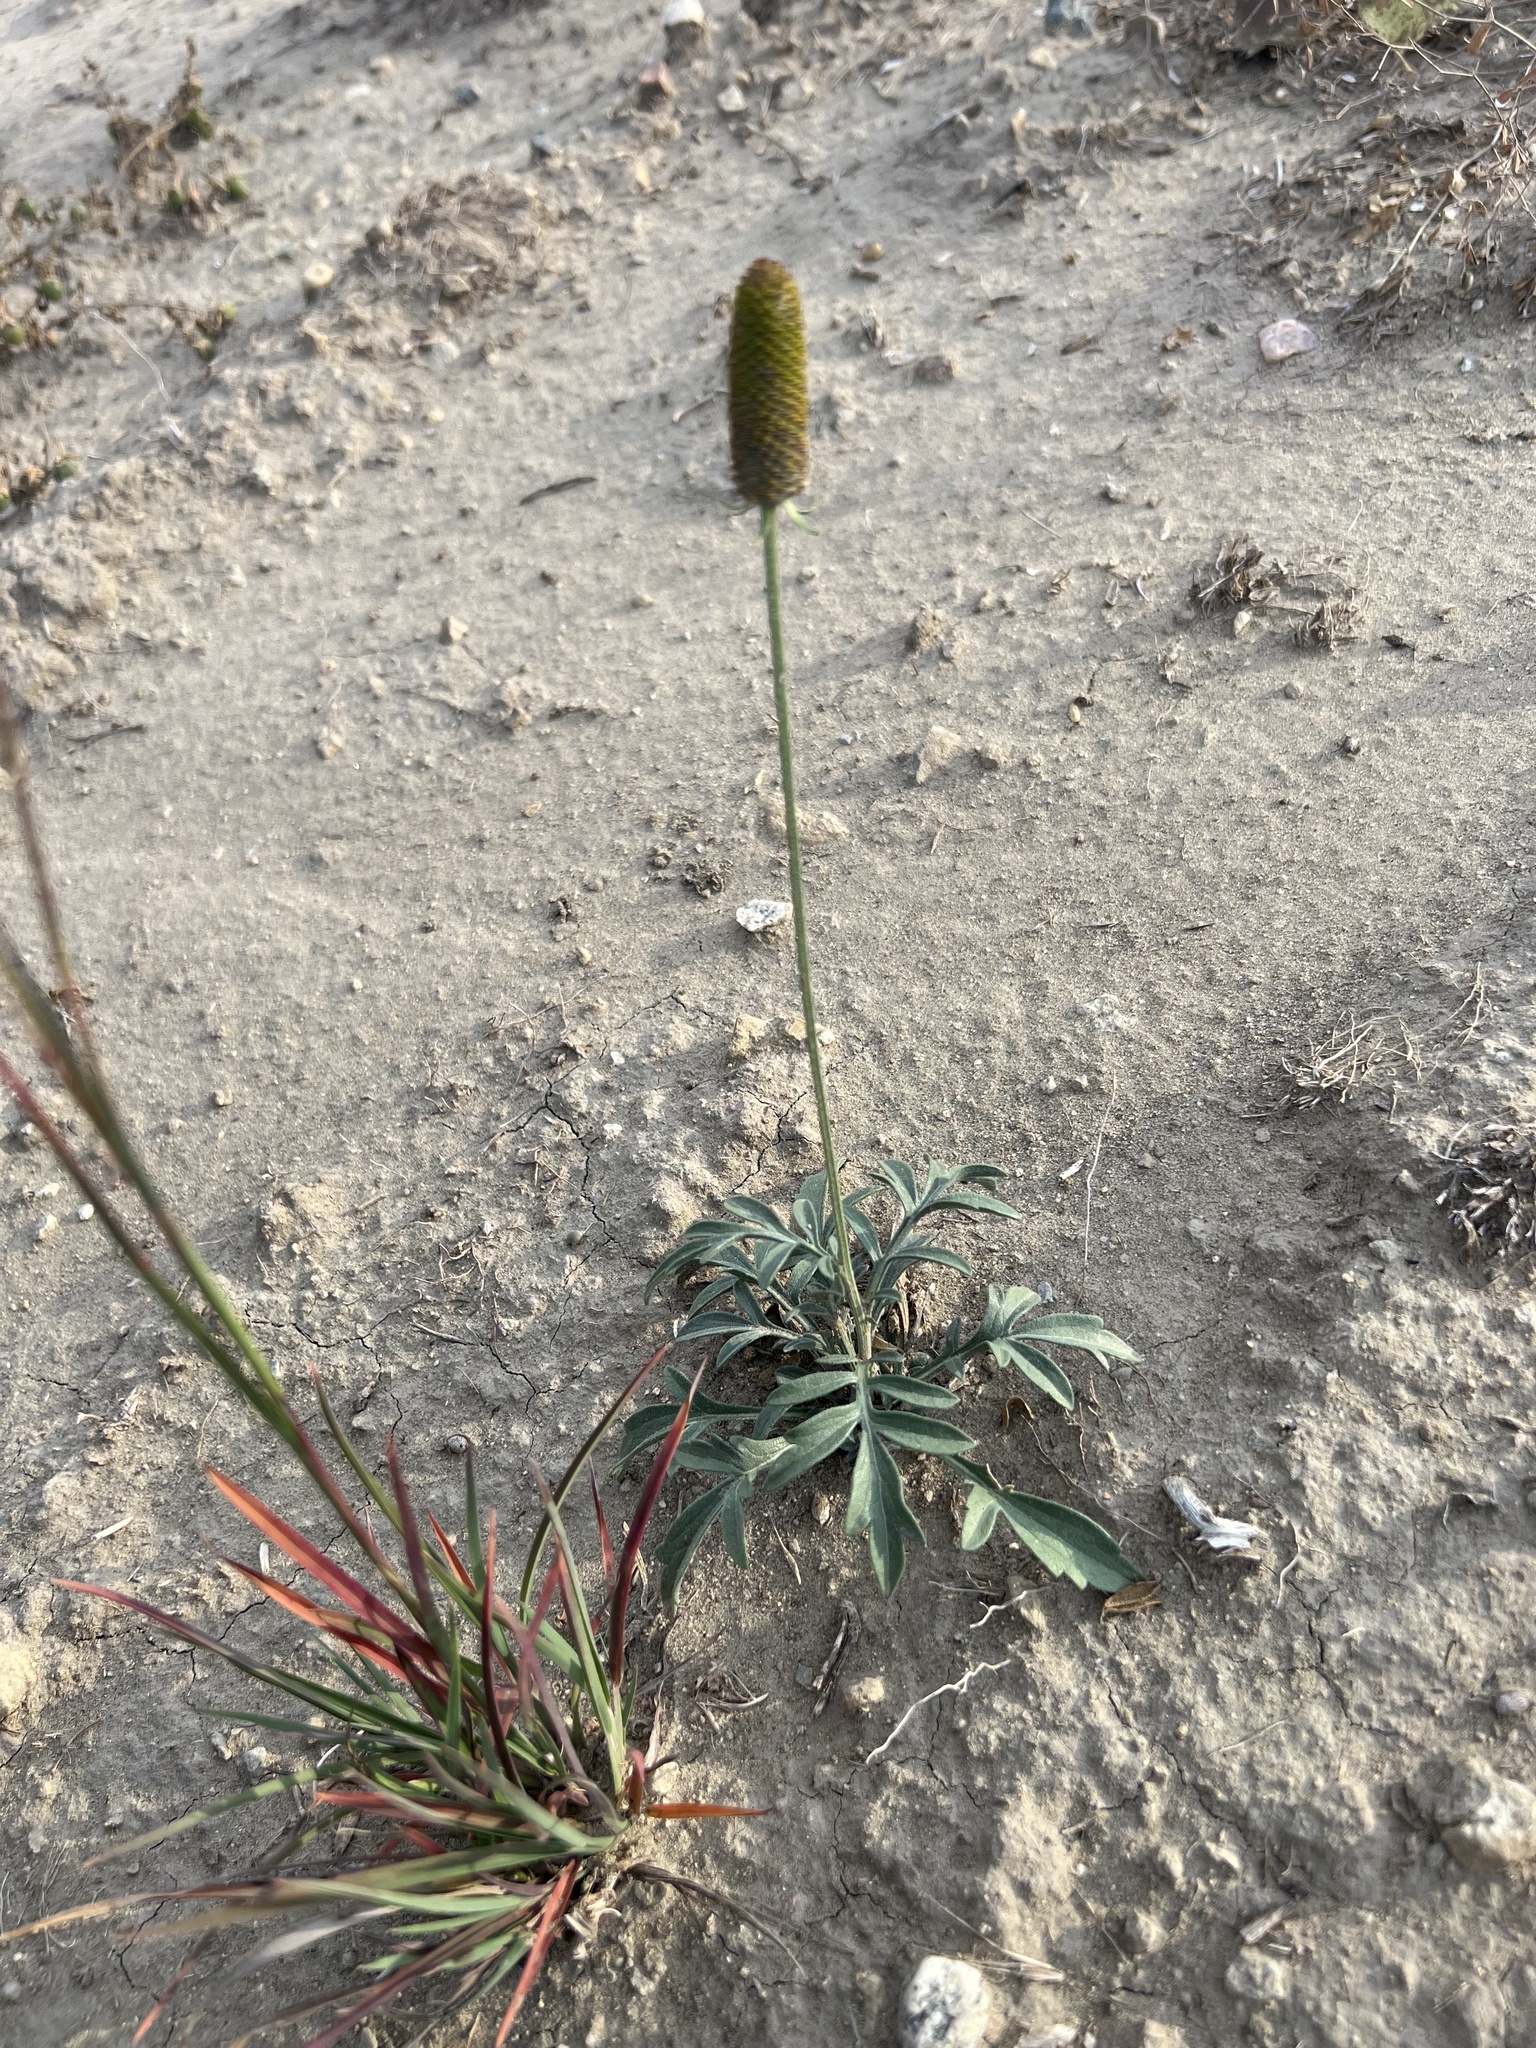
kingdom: Plantae
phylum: Tracheophyta
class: Magnoliopsida
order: Asterales
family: Asteraceae
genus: Ratibida
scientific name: Ratibida columnifera
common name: Prairie coneflower
